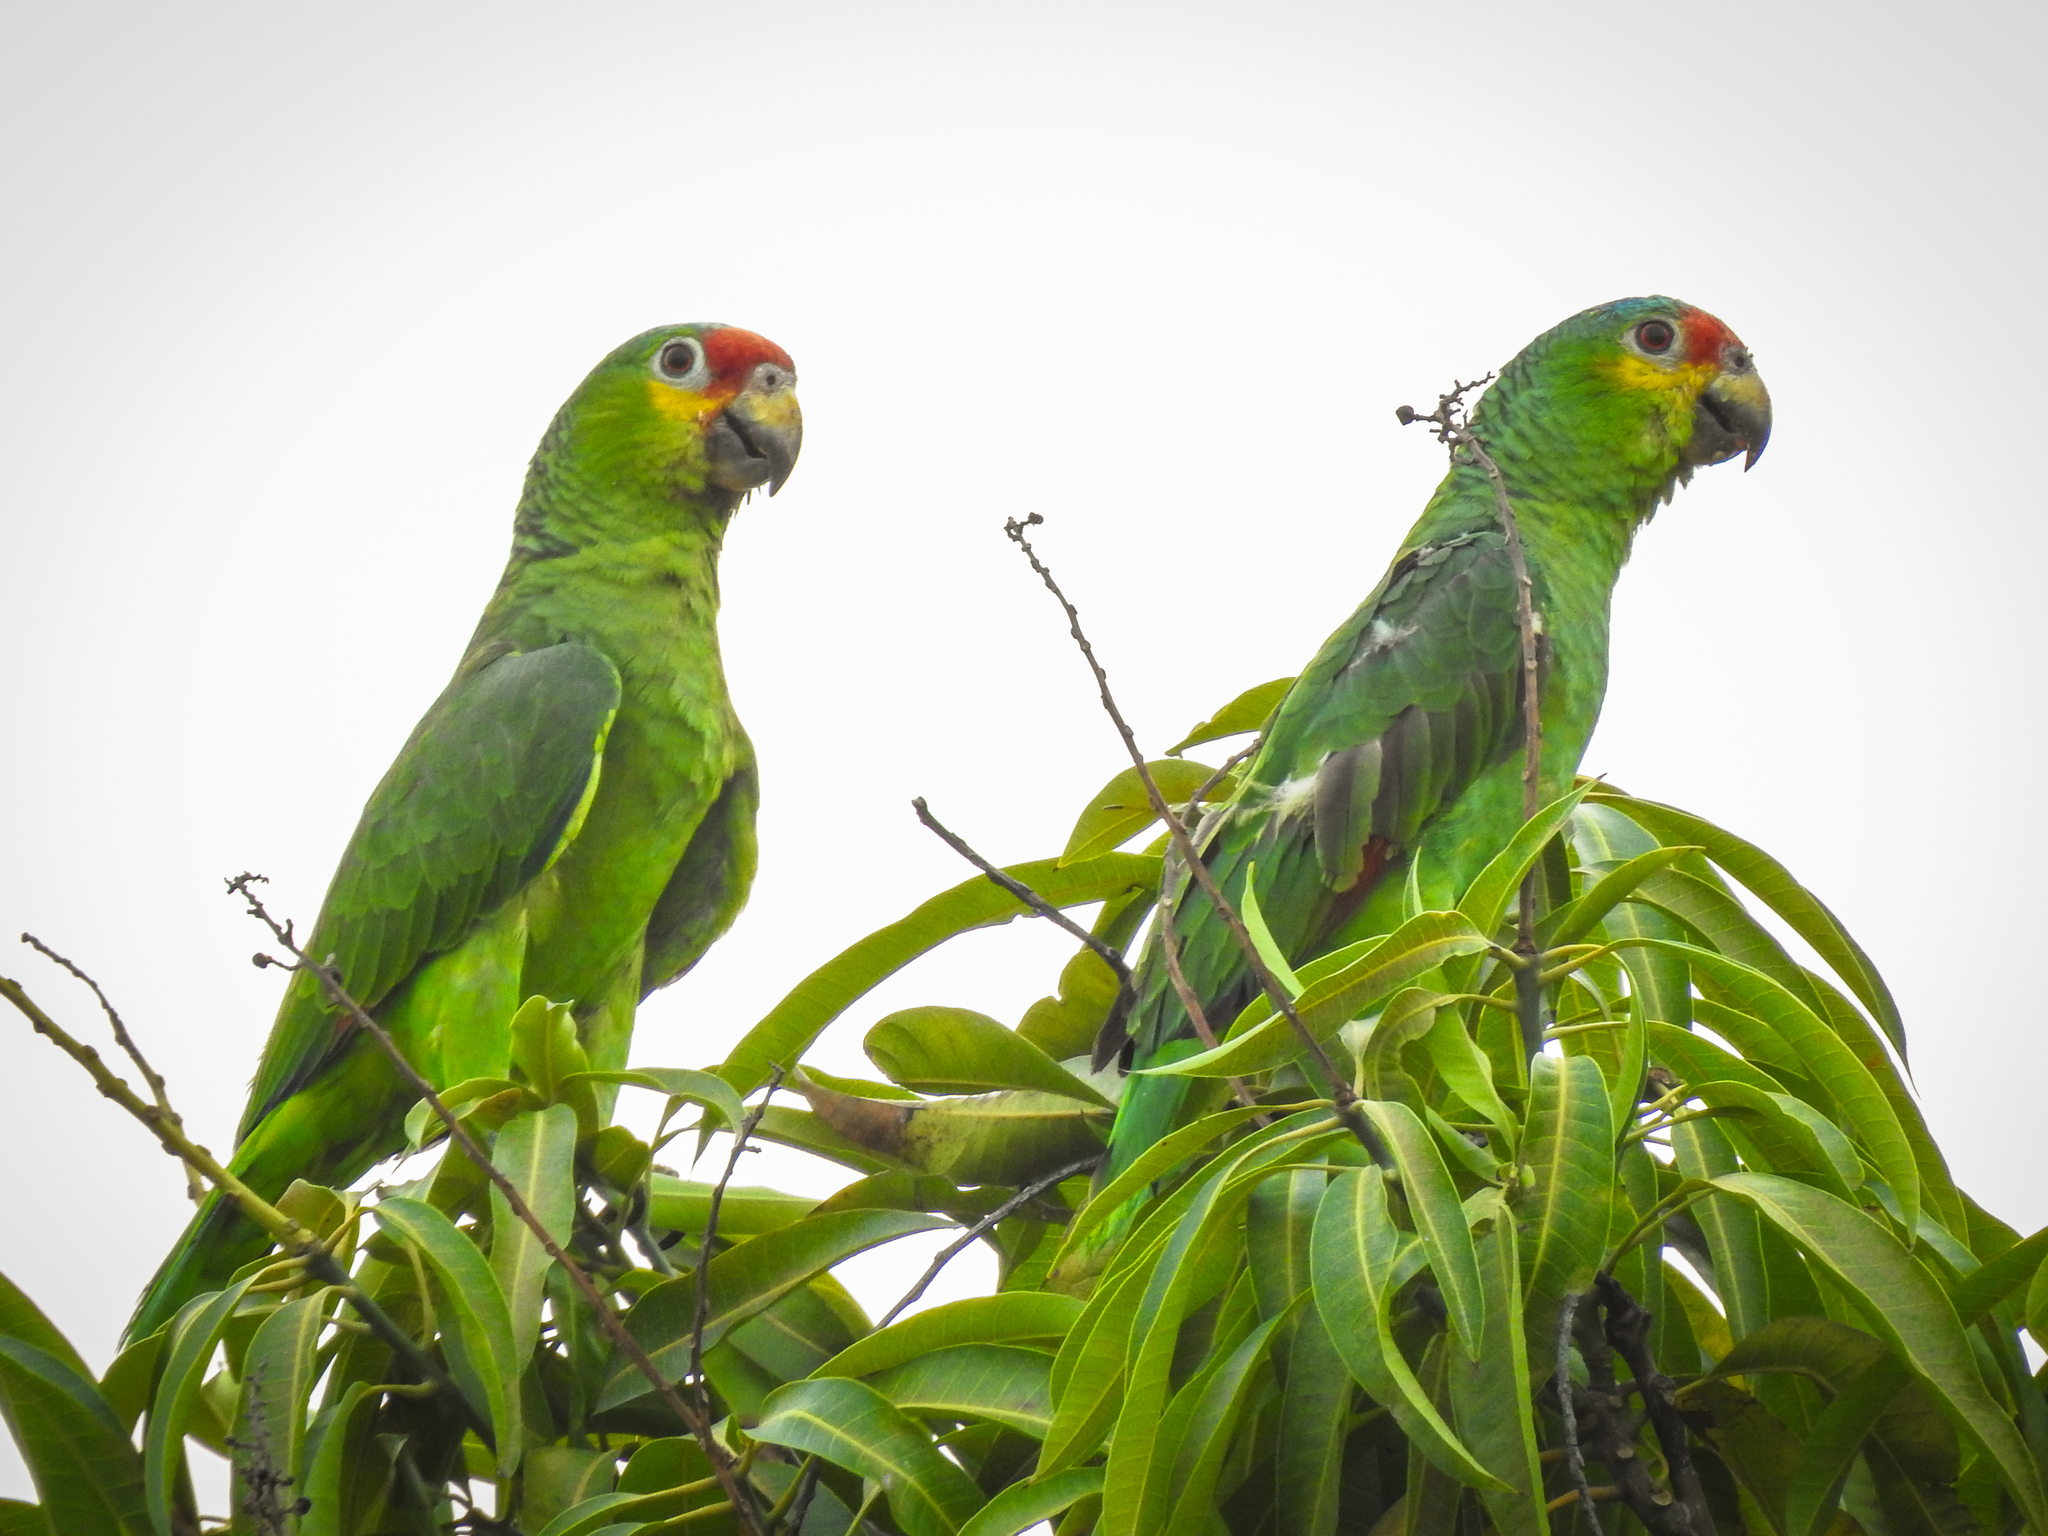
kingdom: Animalia
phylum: Chordata
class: Aves
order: Psittaciformes
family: Psittacidae
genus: Amazona
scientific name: Amazona autumnalis
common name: Red-lored amazon
